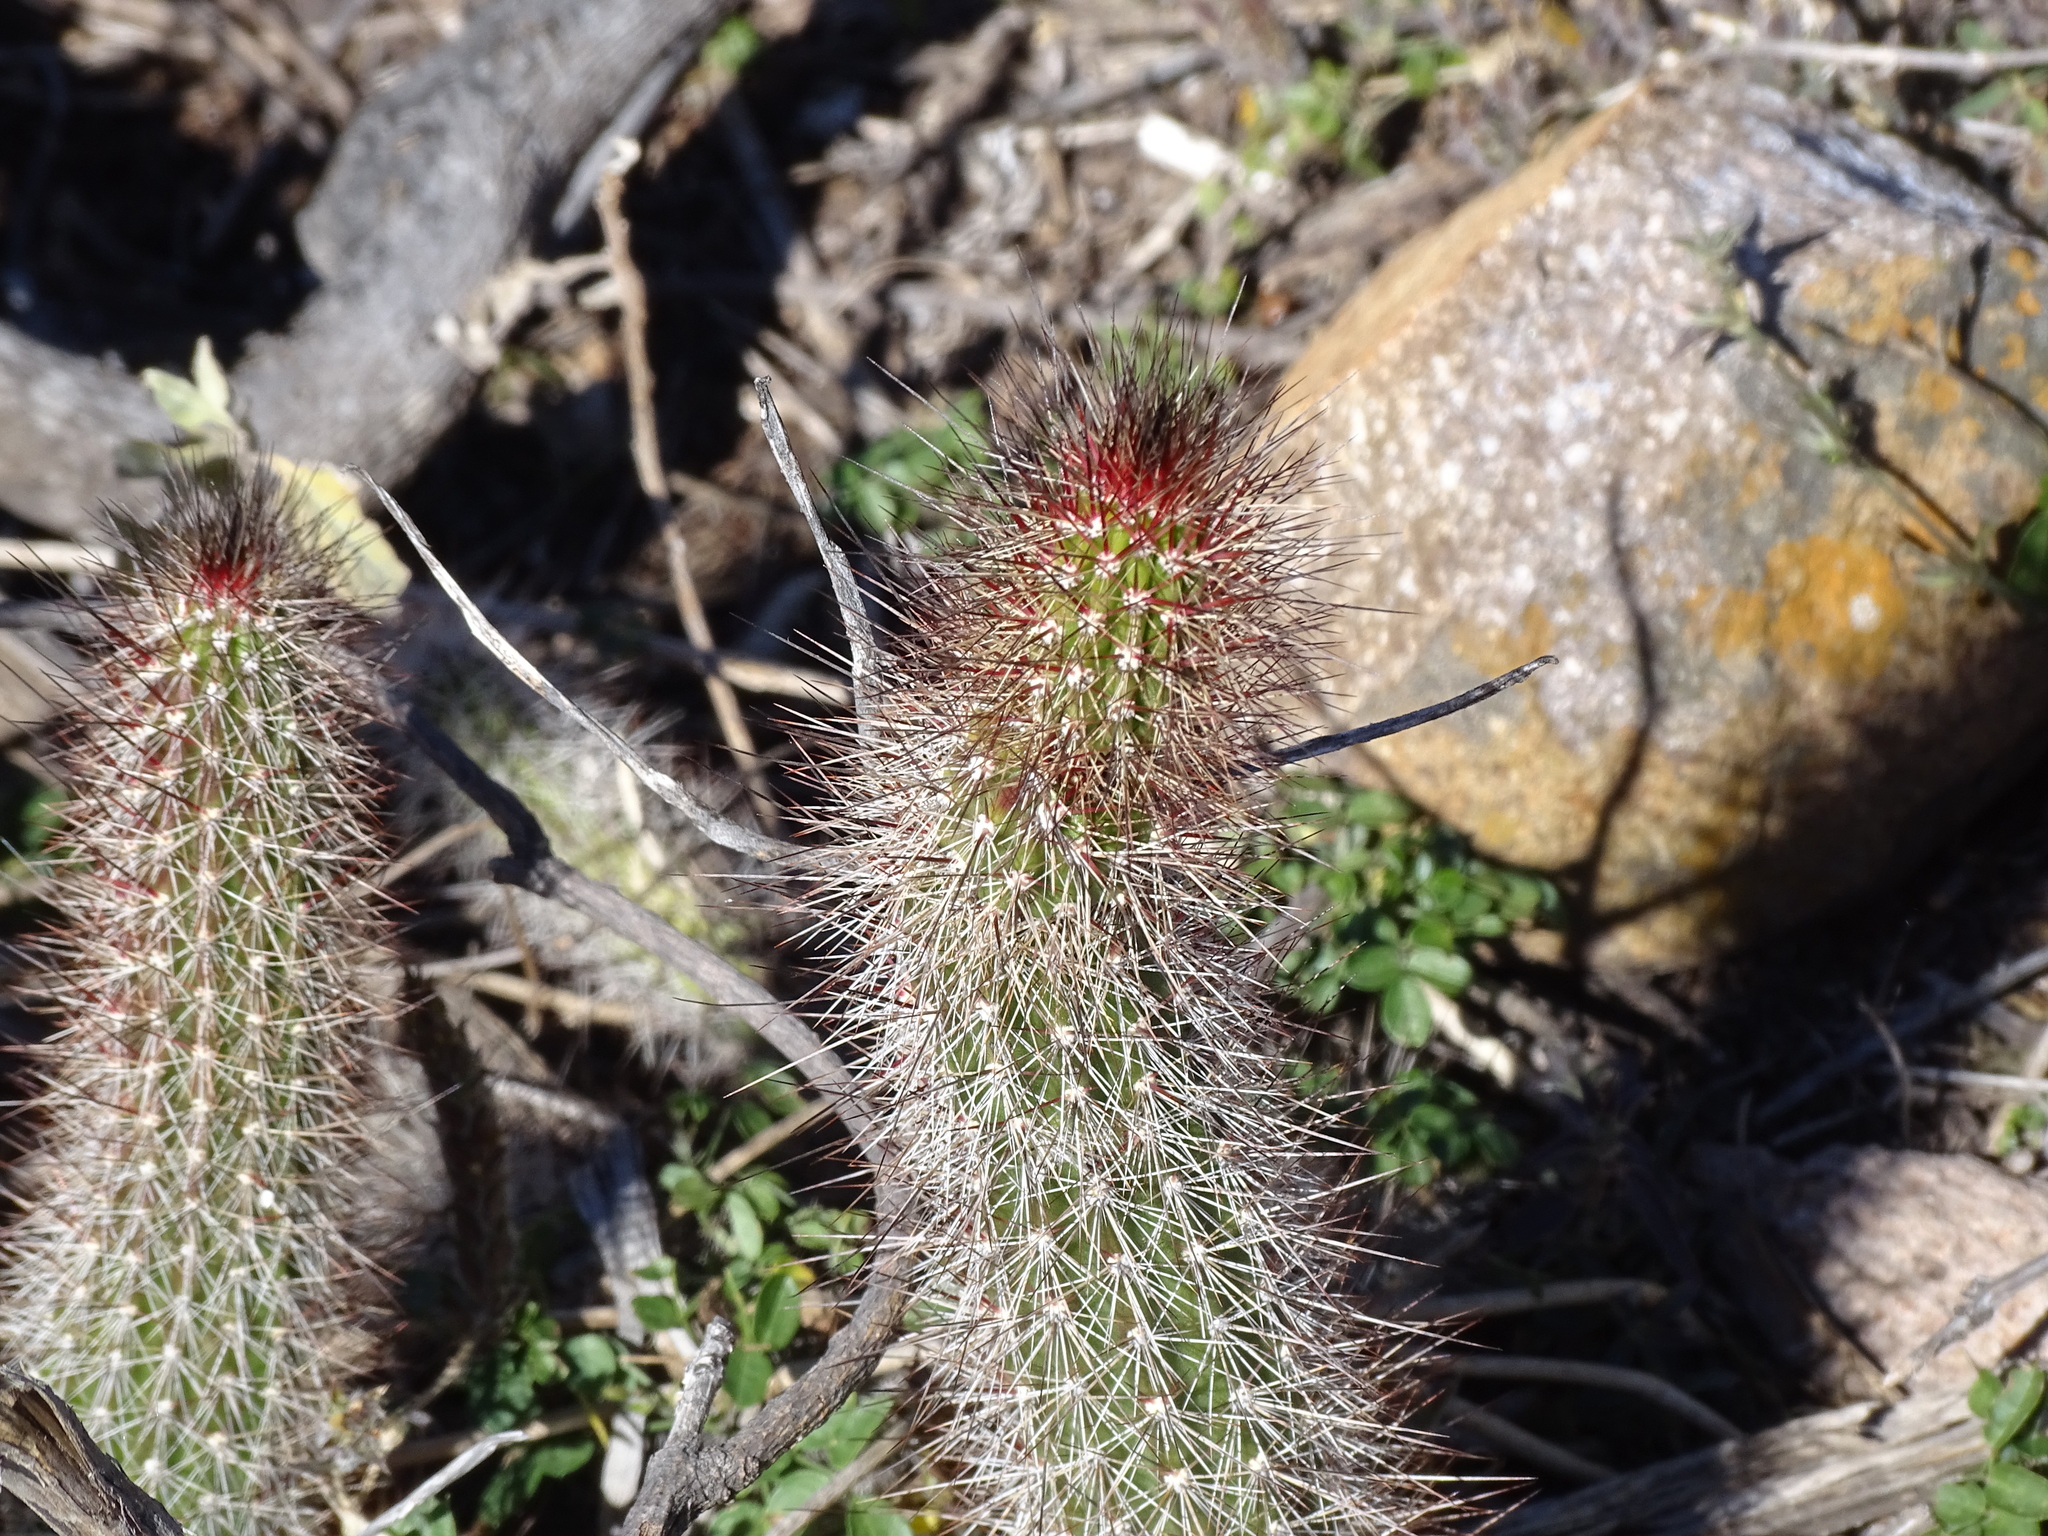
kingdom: Plantae
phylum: Tracheophyta
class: Magnoliopsida
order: Caryophyllales
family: Cactaceae
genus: Peniocereus
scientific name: Peniocereus serpentinus
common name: Serpent cactus
